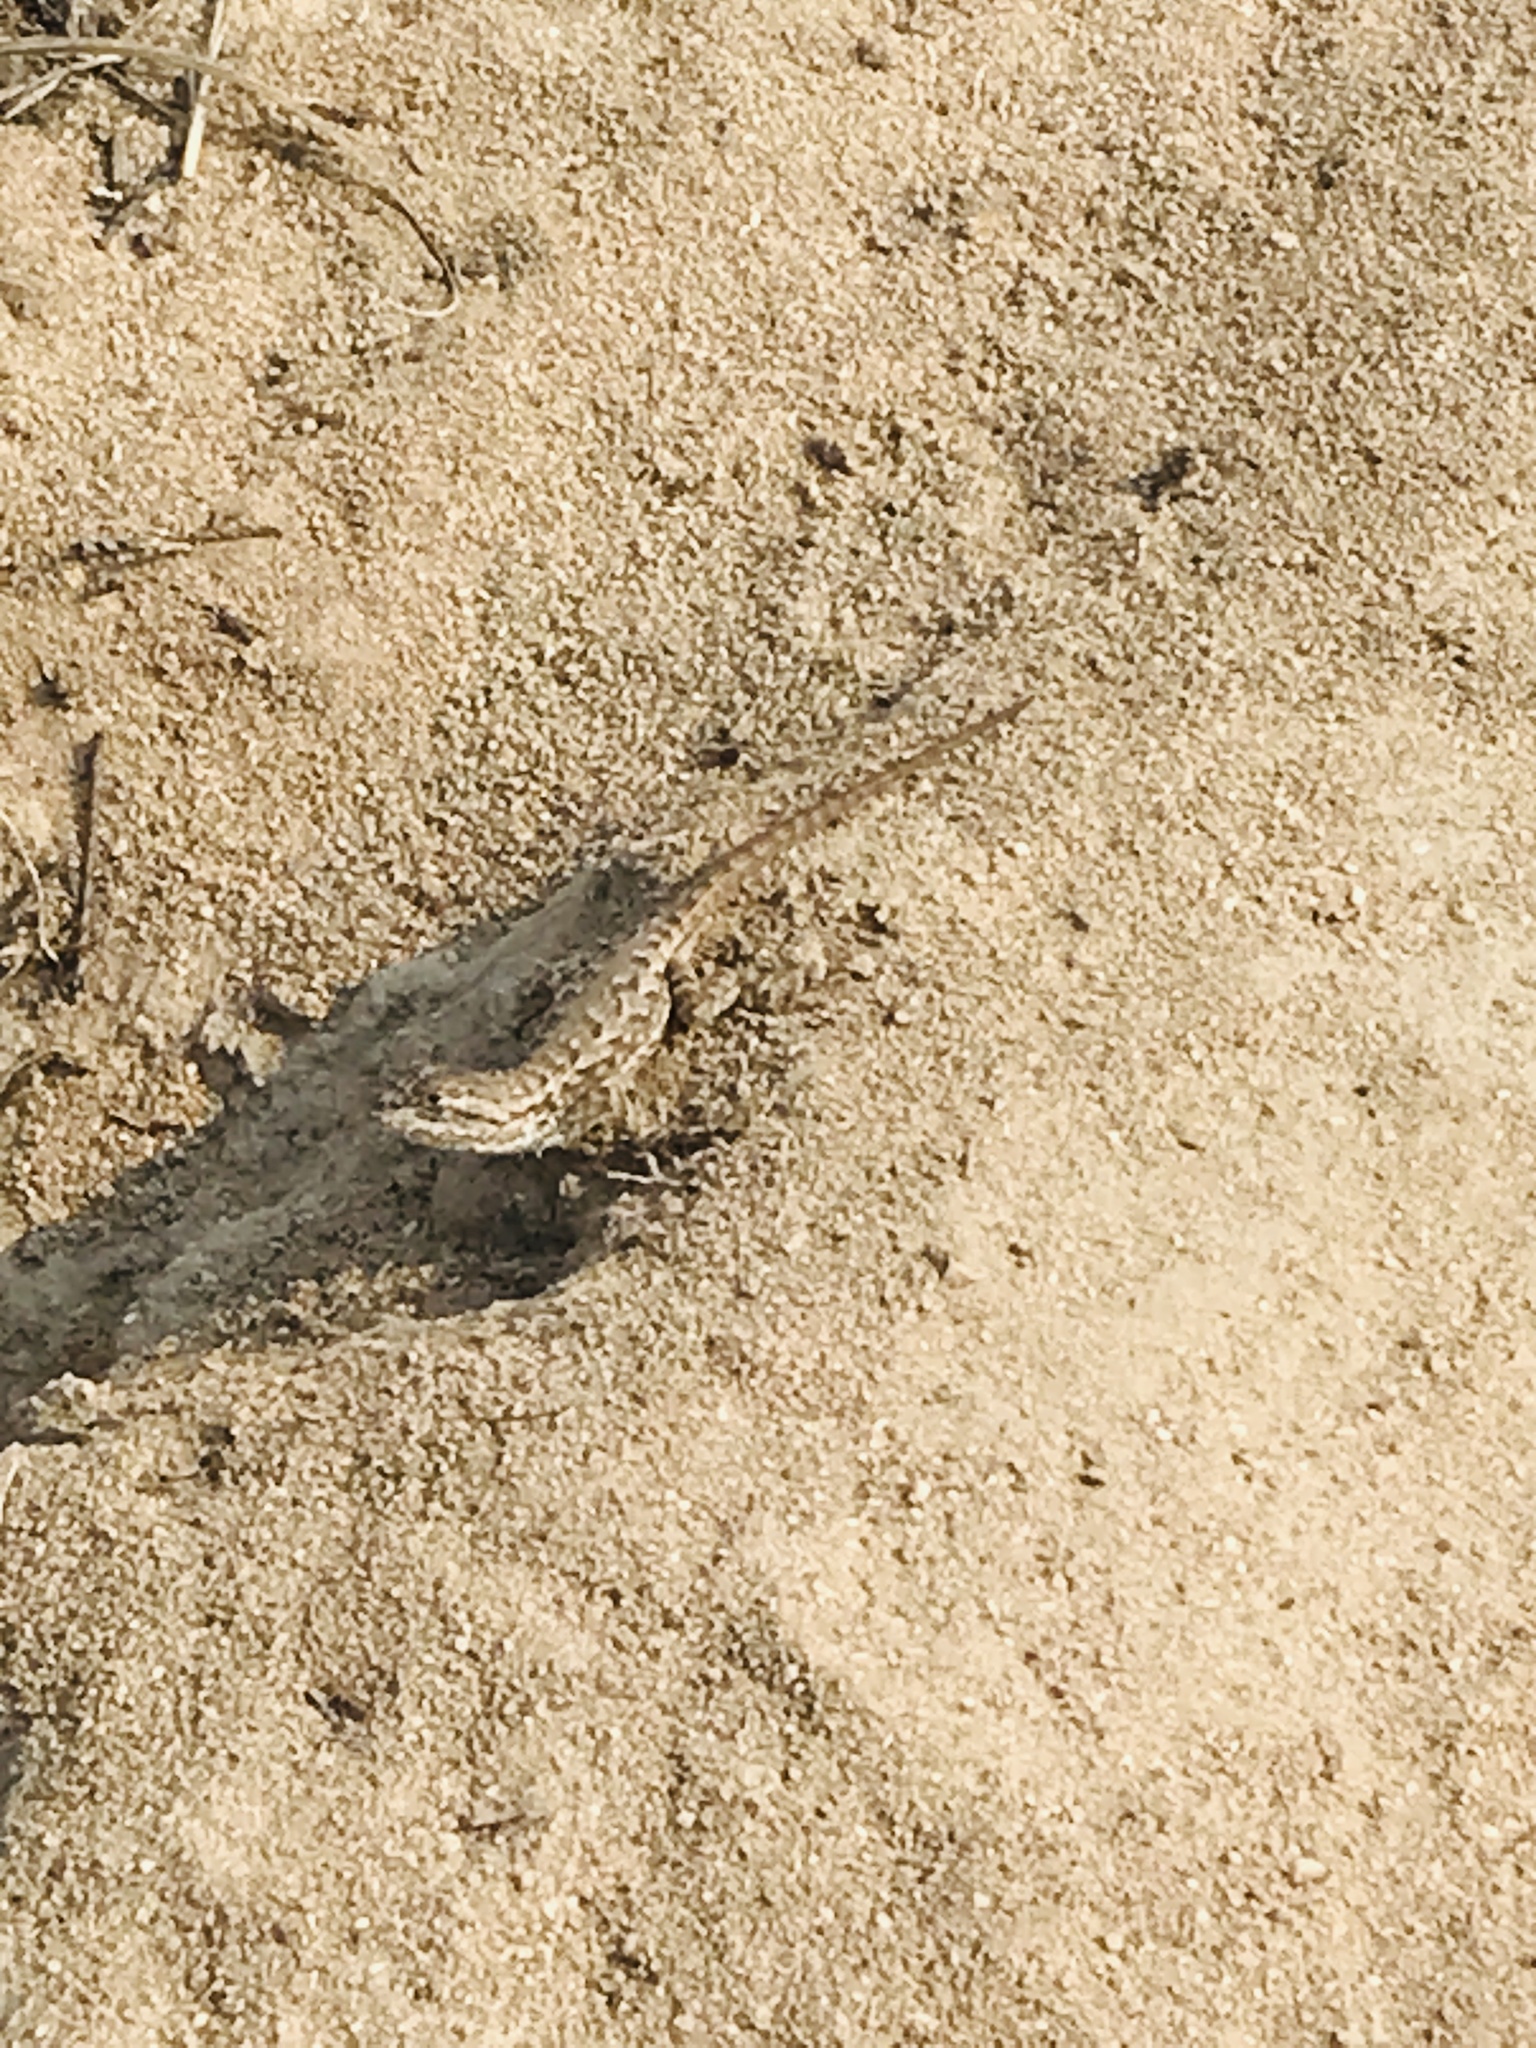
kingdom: Animalia
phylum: Chordata
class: Squamata
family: Phrynosomatidae
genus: Sceloporus
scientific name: Sceloporus occidentalis
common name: Western fence lizard
